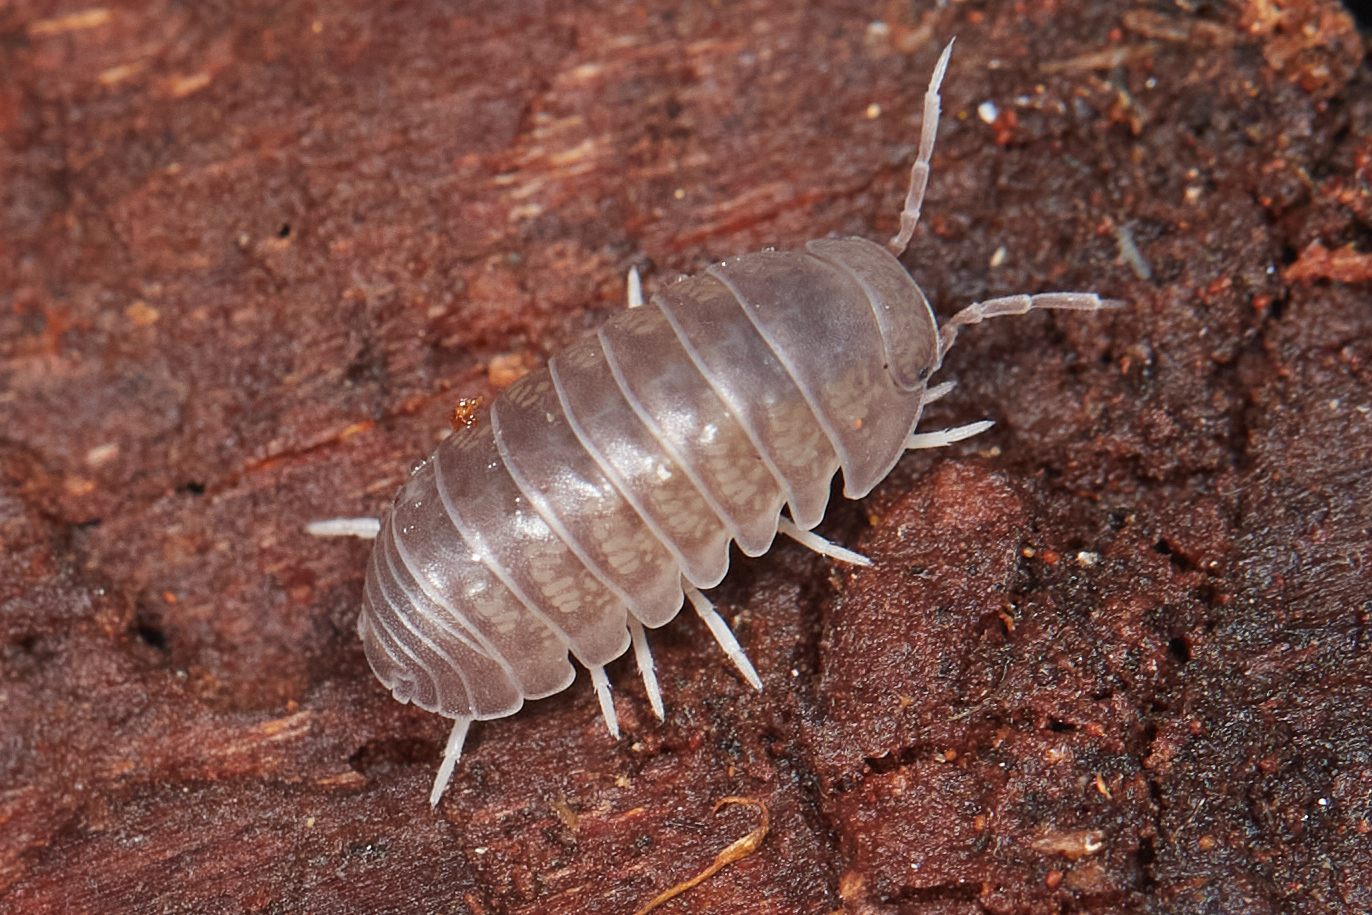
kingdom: Animalia
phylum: Arthropoda
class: Malacostraca
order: Isopoda
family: Armadillidae
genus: Venezillo
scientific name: Venezillo microphthalmus
